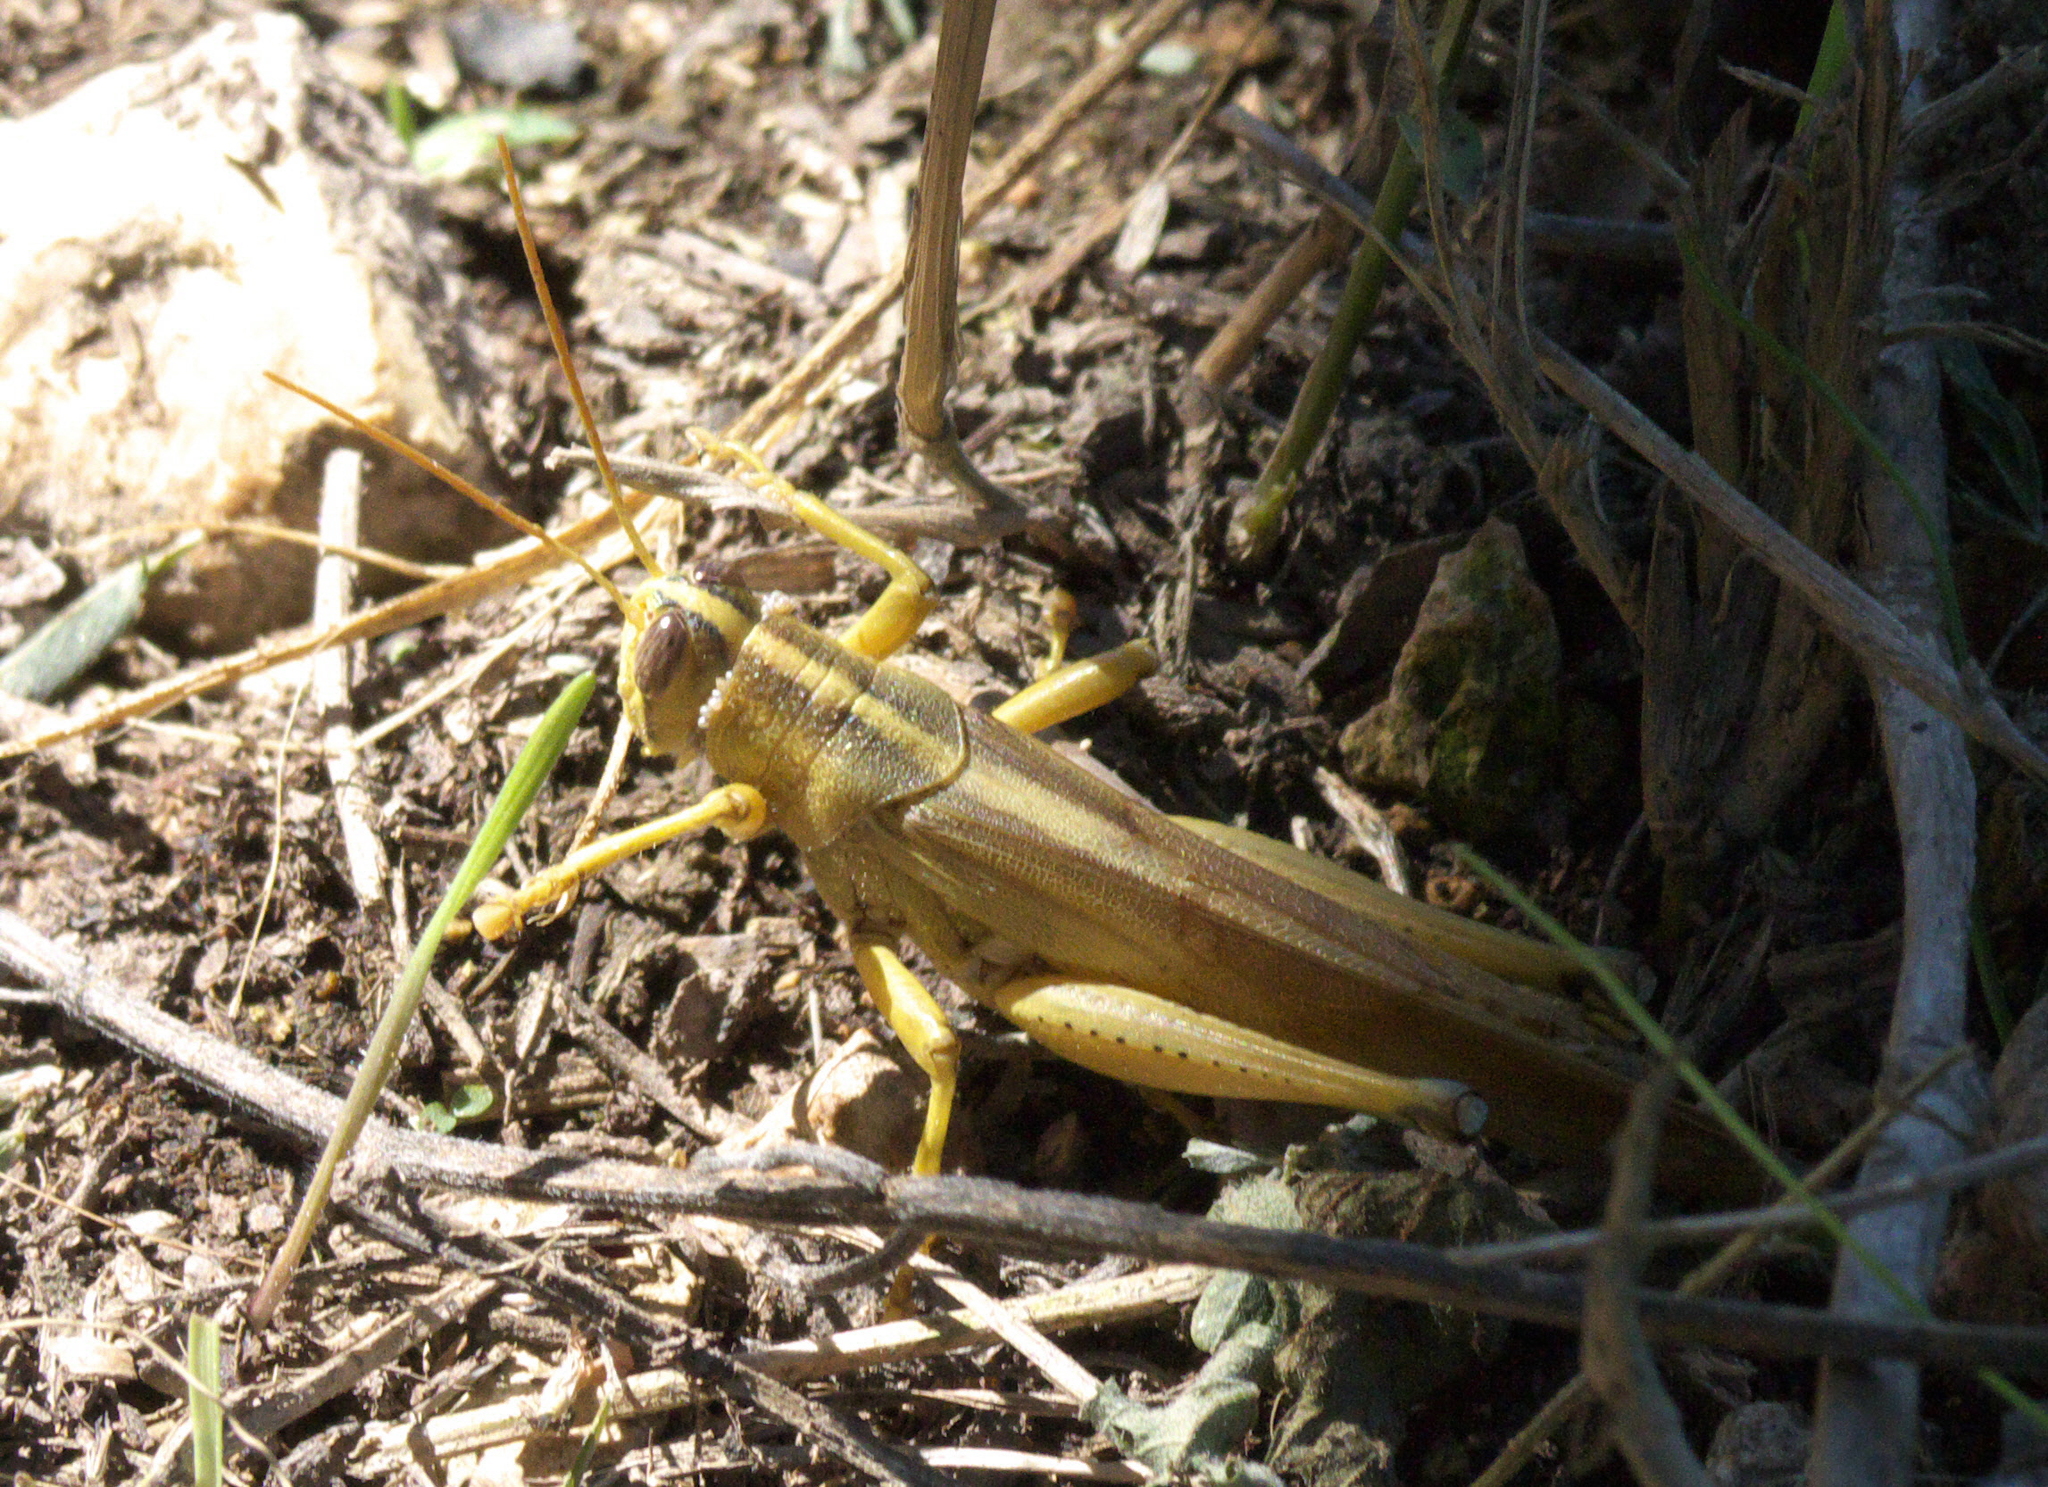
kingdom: Animalia
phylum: Arthropoda
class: Insecta
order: Orthoptera
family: Acrididae
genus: Schistocerca
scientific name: Schistocerca lineata
